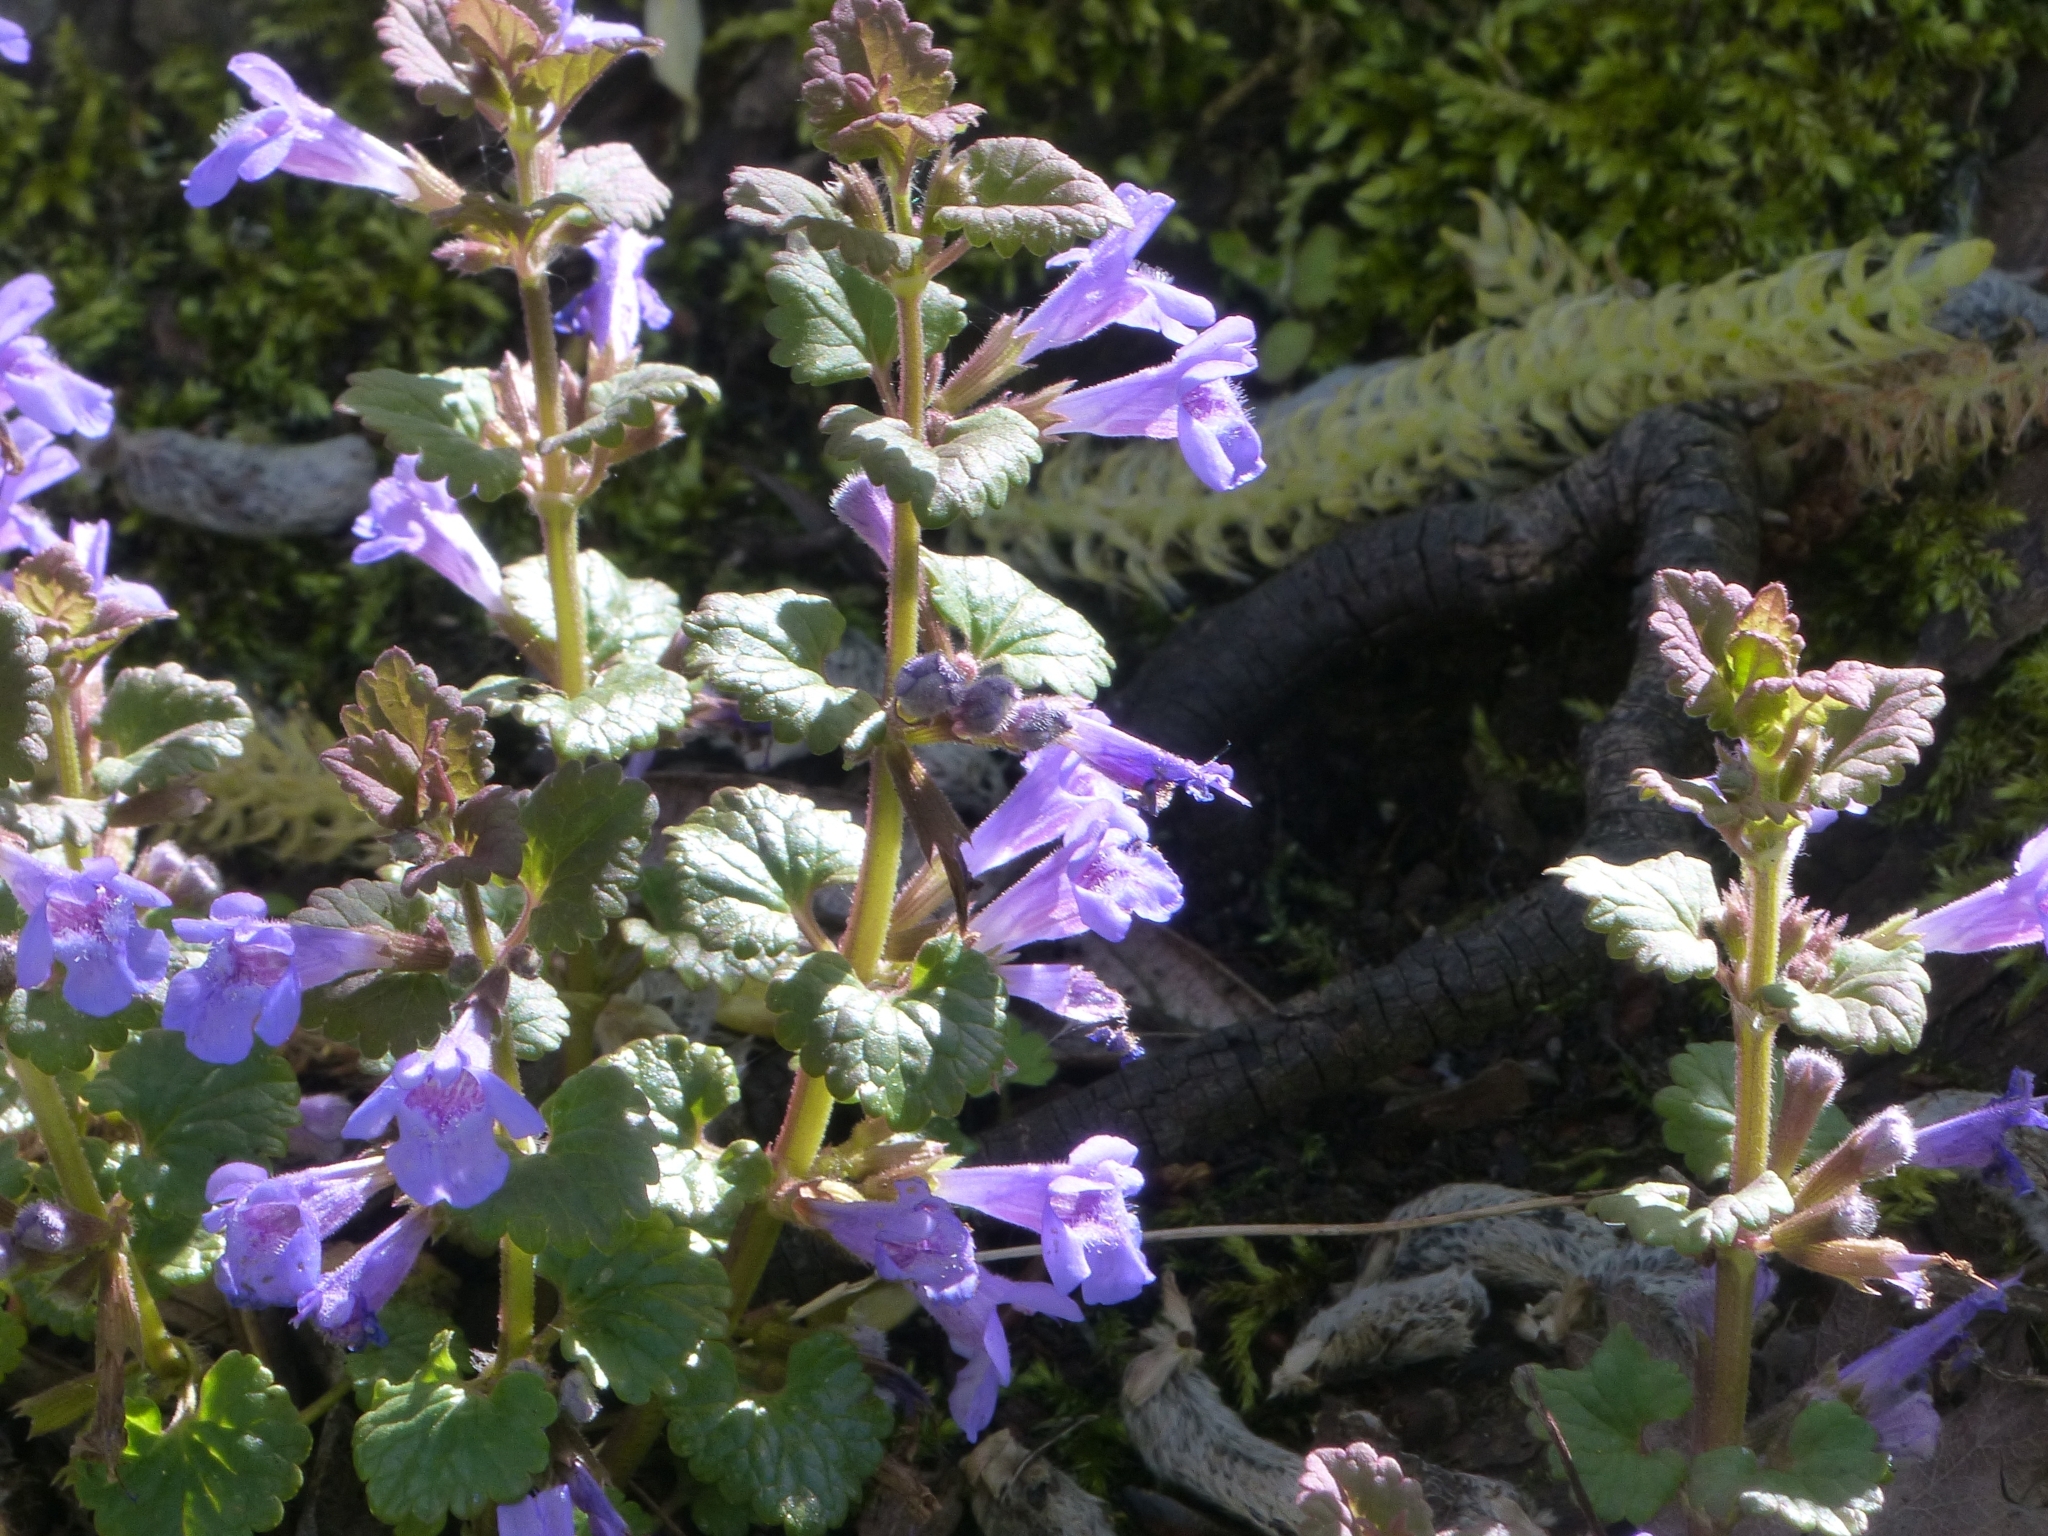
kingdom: Plantae
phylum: Tracheophyta
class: Magnoliopsida
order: Lamiales
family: Lamiaceae
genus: Glechoma
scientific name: Glechoma hederacea
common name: Ground ivy
